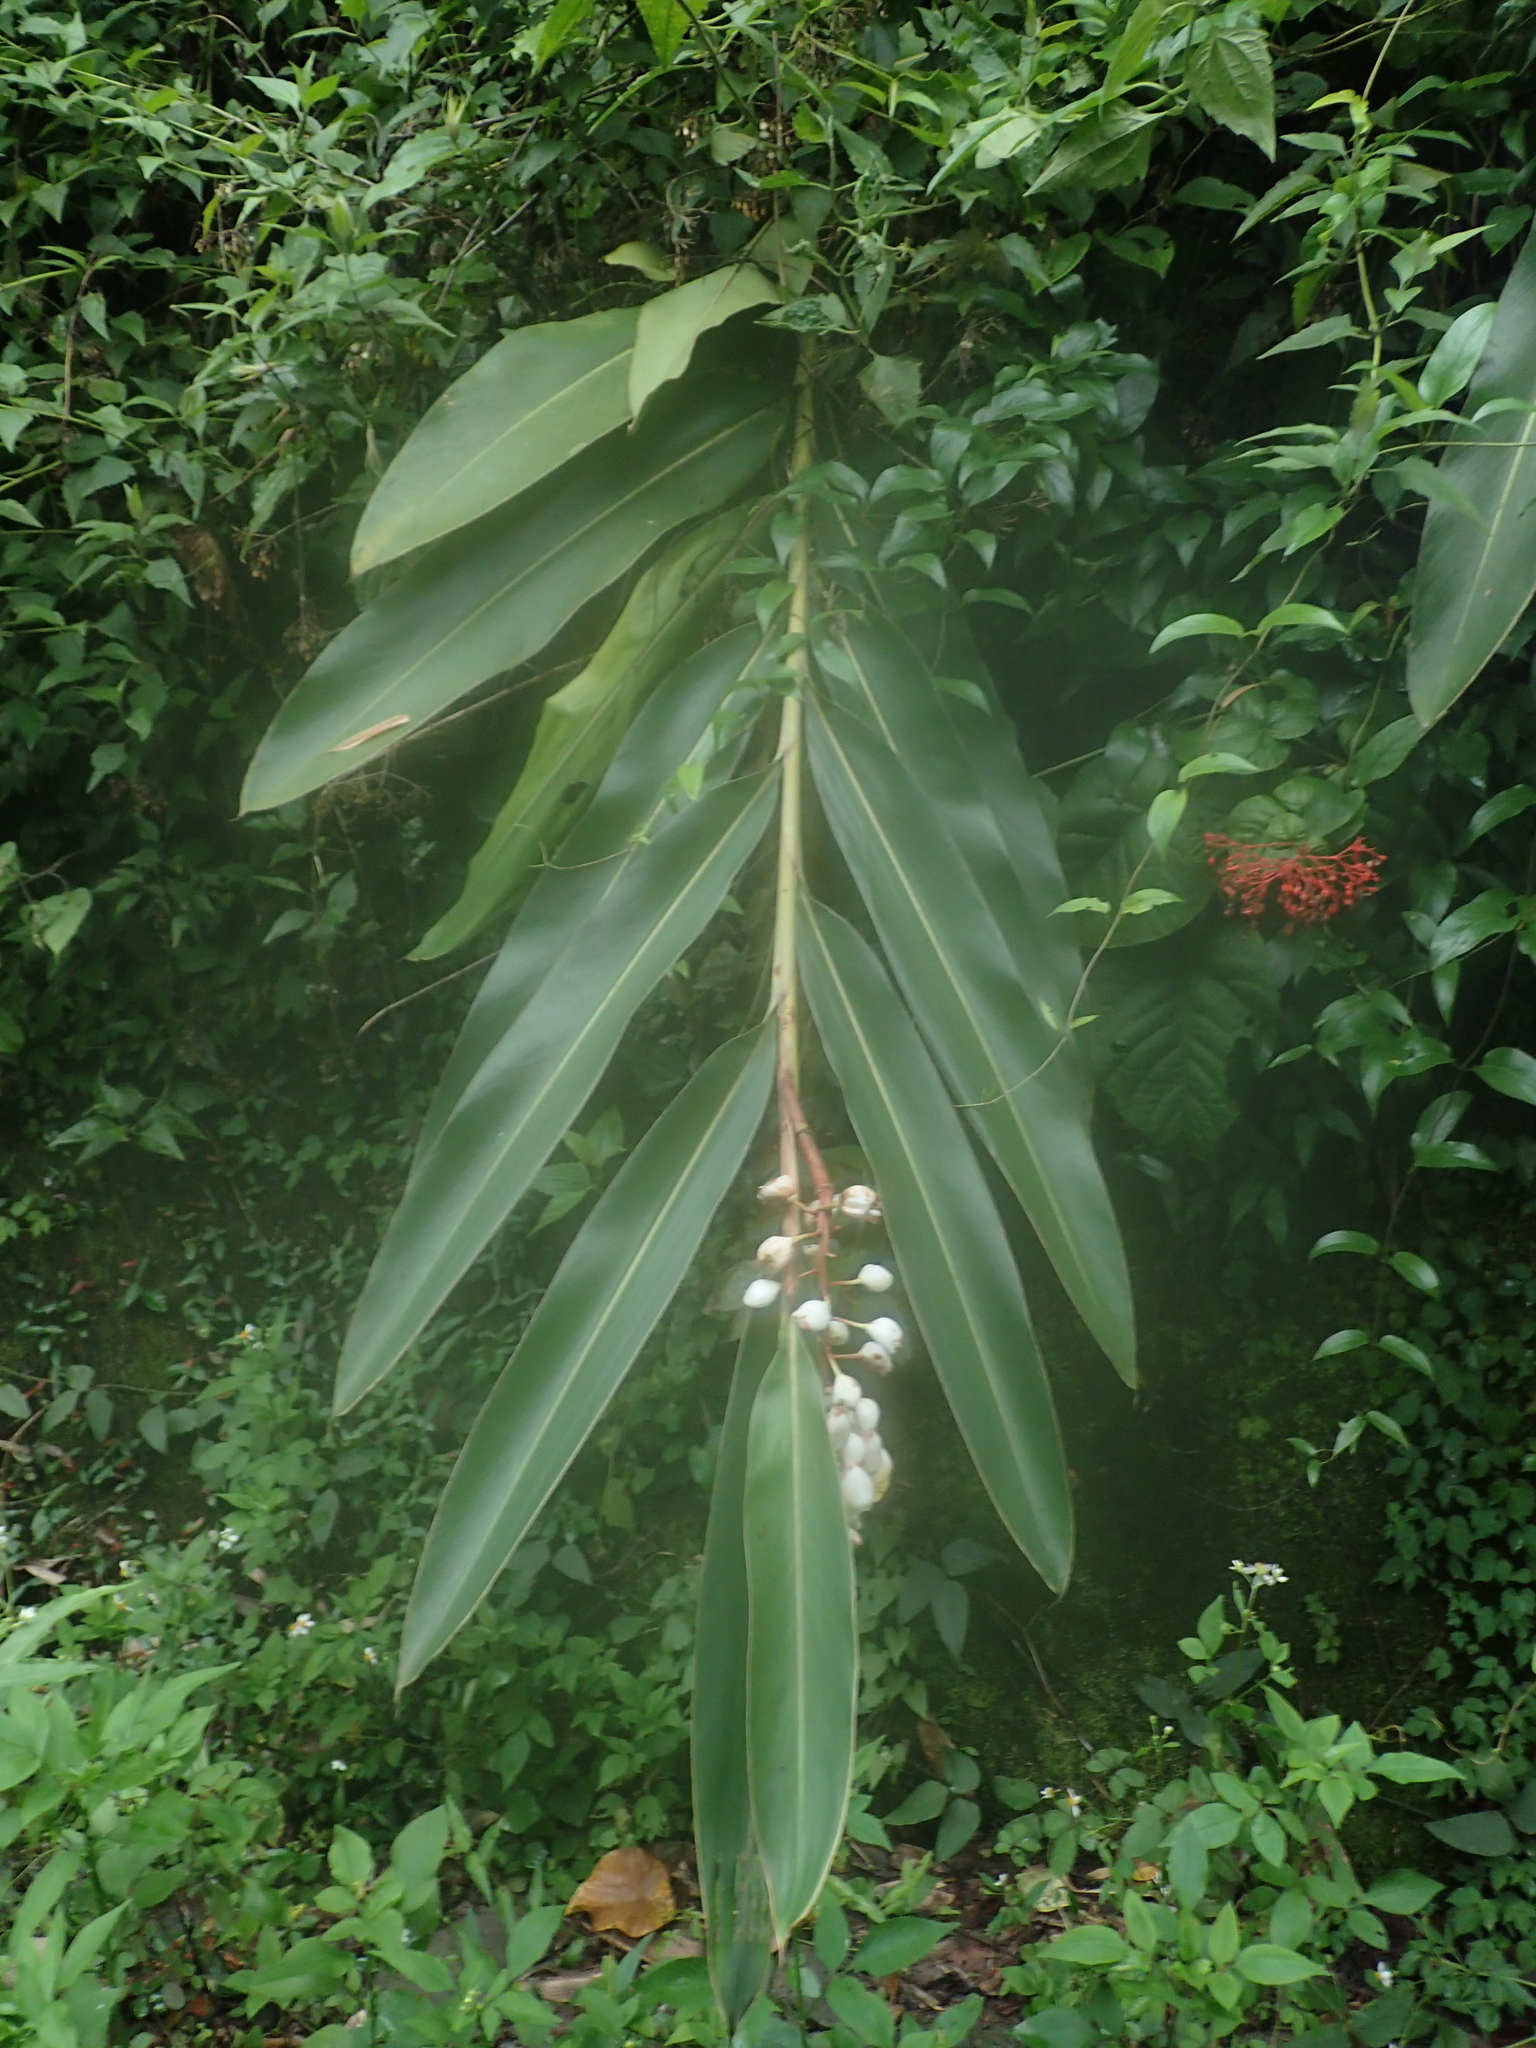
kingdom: Plantae
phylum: Tracheophyta
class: Liliopsida
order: Zingiberales
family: Zingiberaceae
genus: Alpinia
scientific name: Alpinia zerumbet
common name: Shellplant
